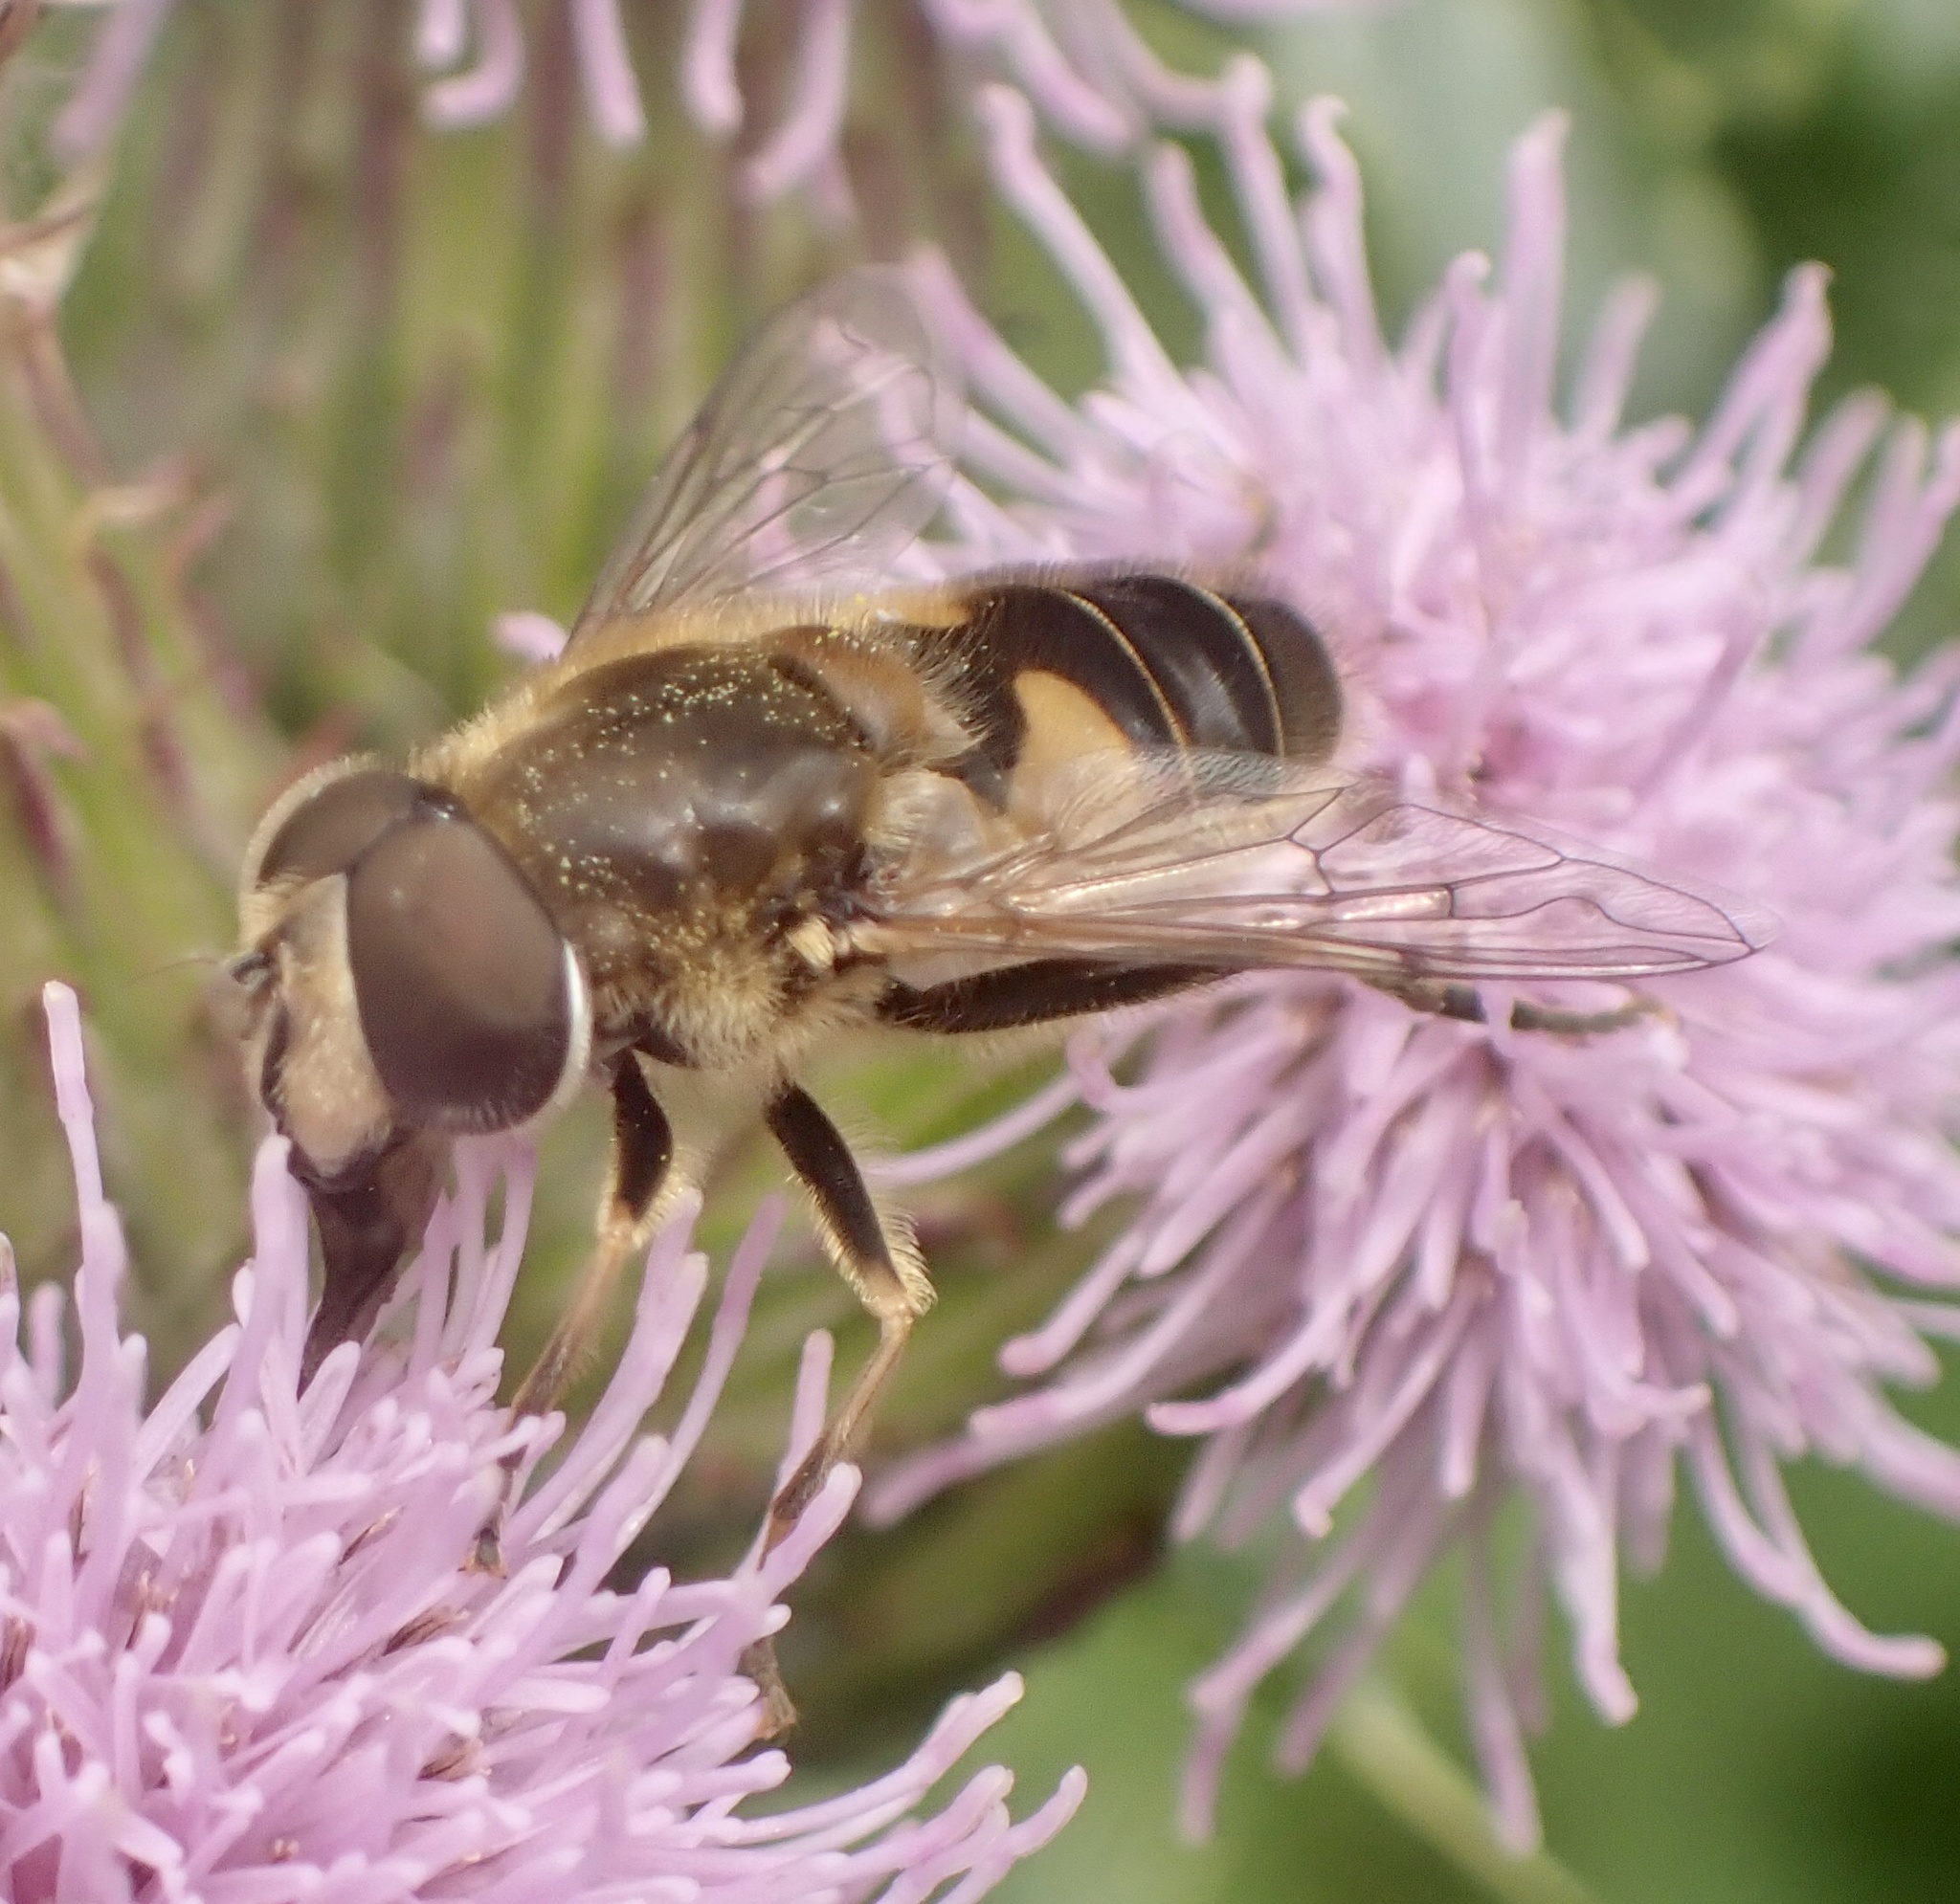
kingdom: Animalia
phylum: Arthropoda
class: Insecta
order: Diptera
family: Syrphidae
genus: Eristalis
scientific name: Eristalis nemorum
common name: Orange-spined drone fly
